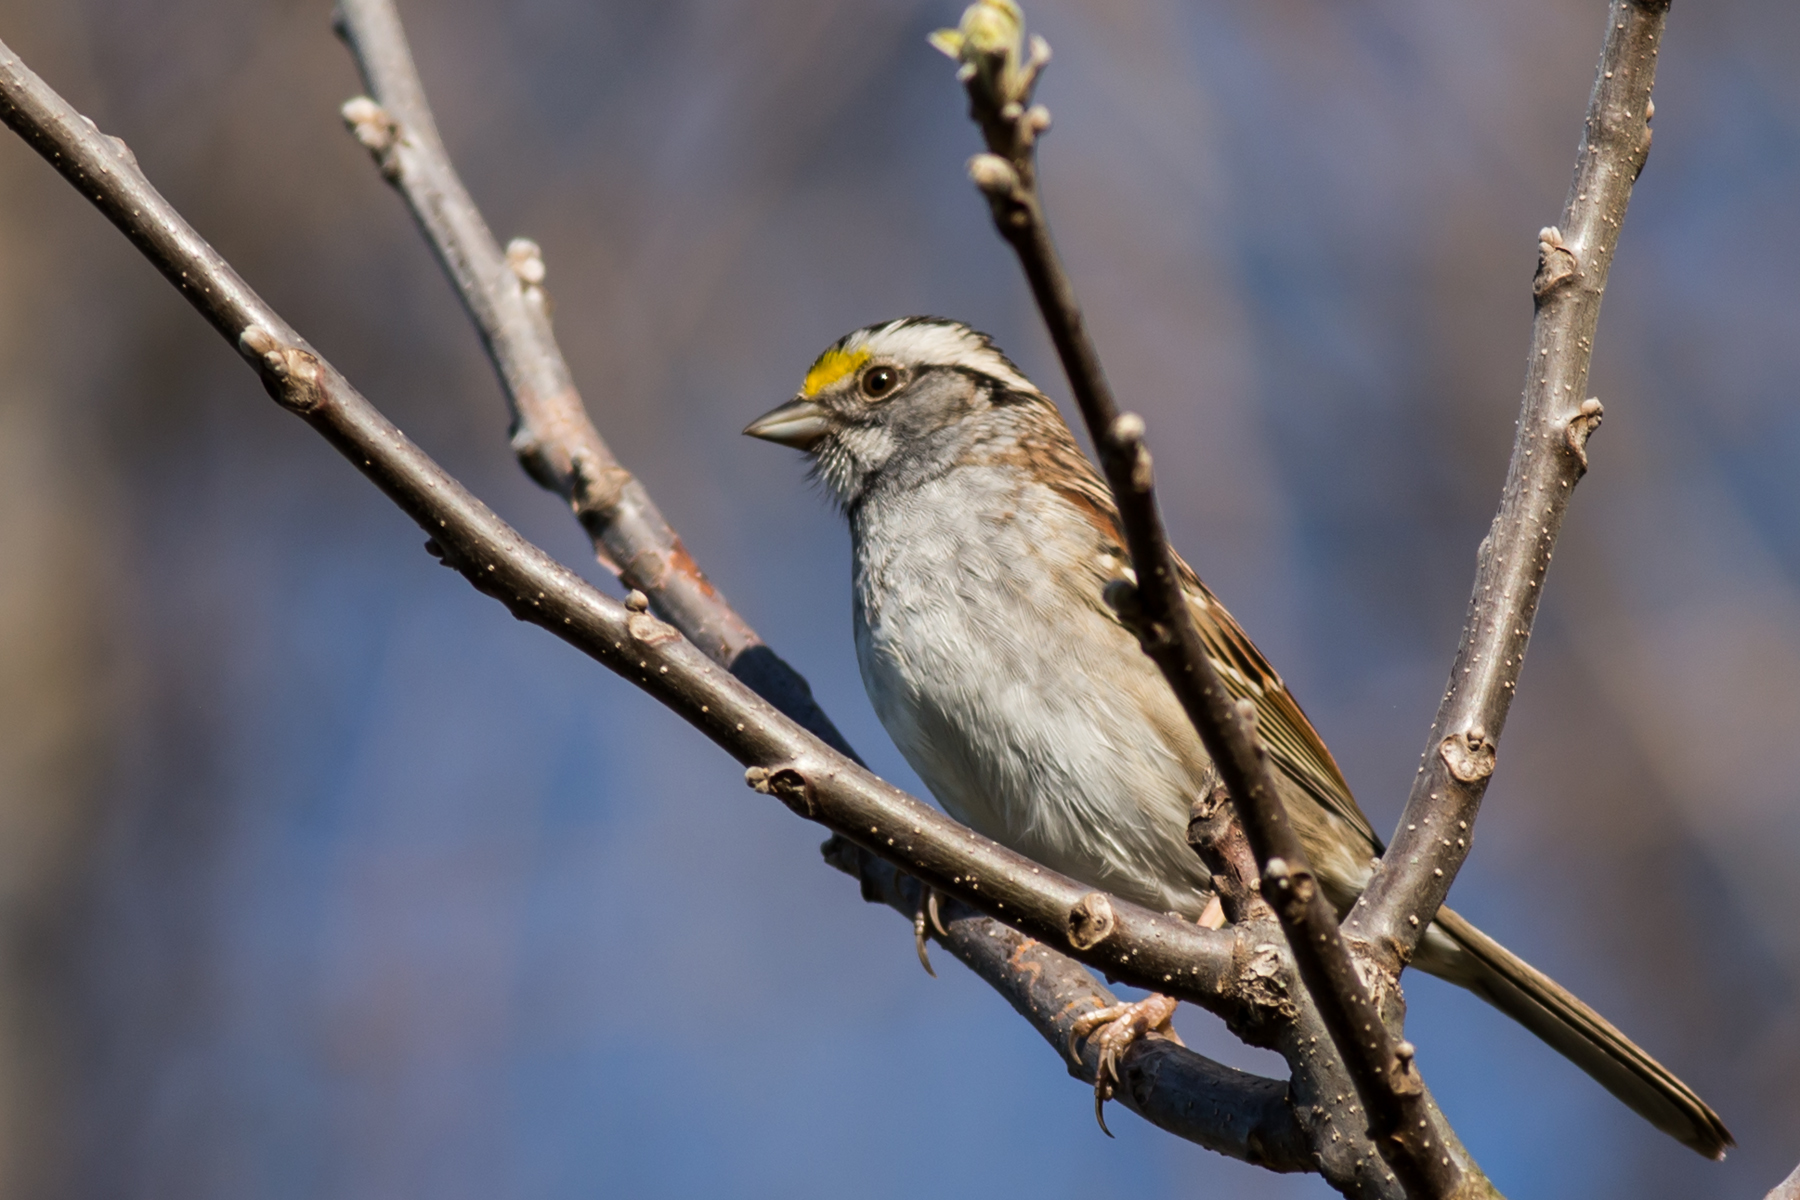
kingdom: Animalia
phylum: Chordata
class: Aves
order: Passeriformes
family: Passerellidae
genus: Zonotrichia
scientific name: Zonotrichia albicollis
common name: White-throated sparrow
